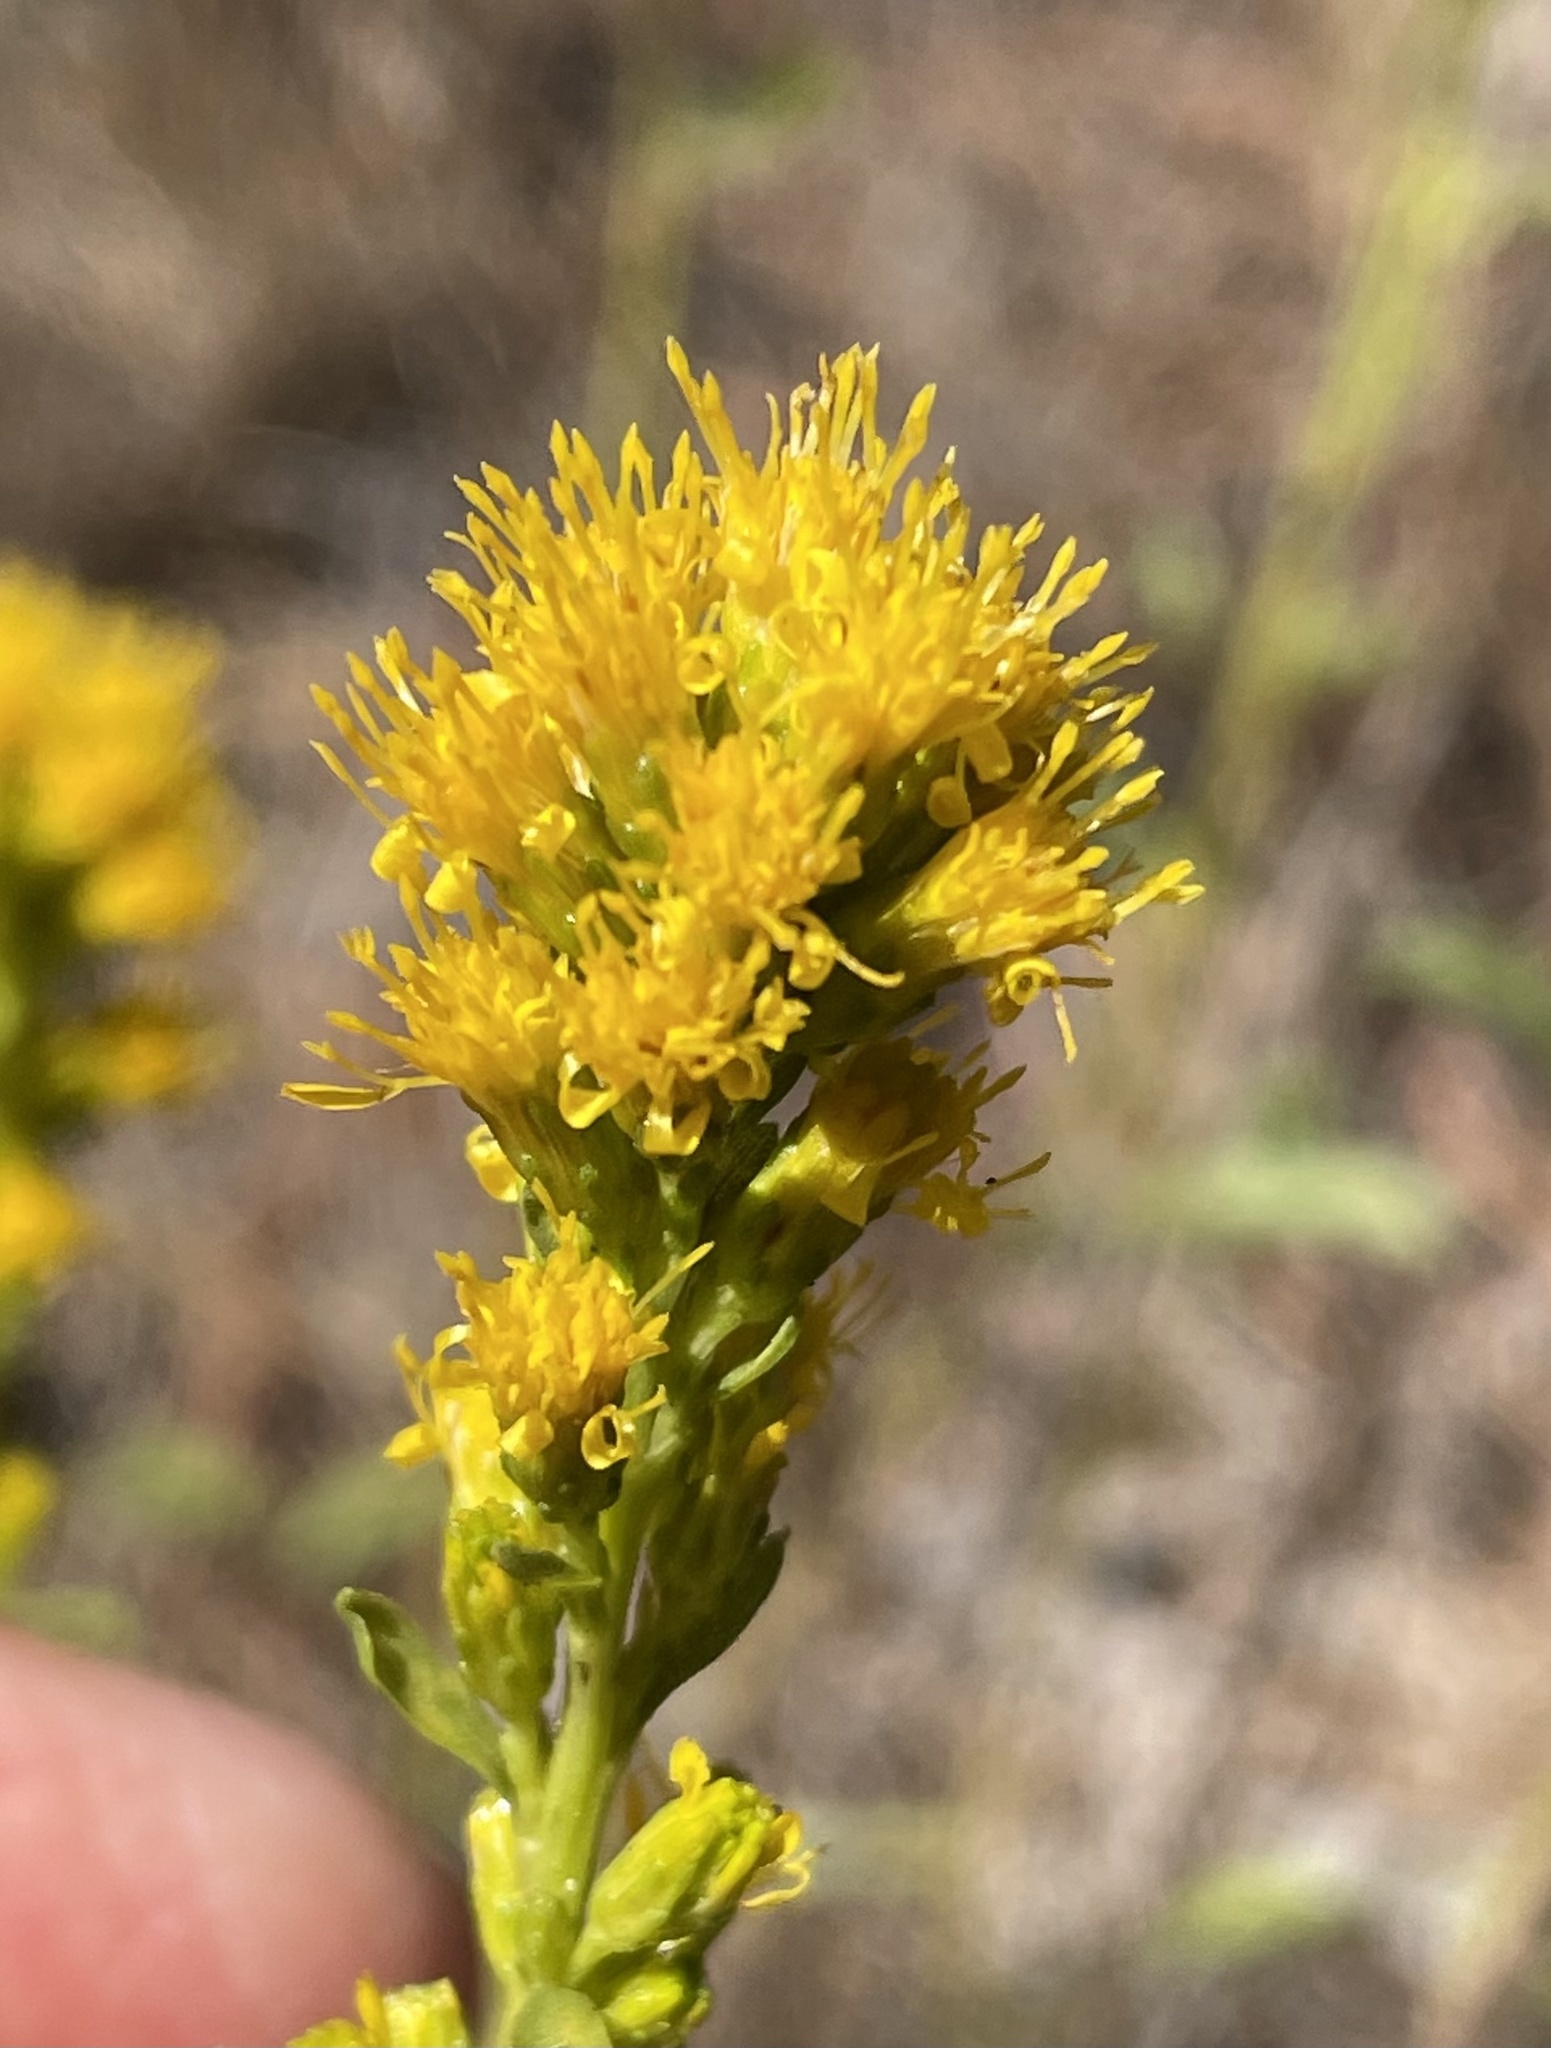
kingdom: Plantae
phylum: Tracheophyta
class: Magnoliopsida
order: Asterales
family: Asteraceae
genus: Solidago
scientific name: Solidago spathulata
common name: Coast goldenrod
